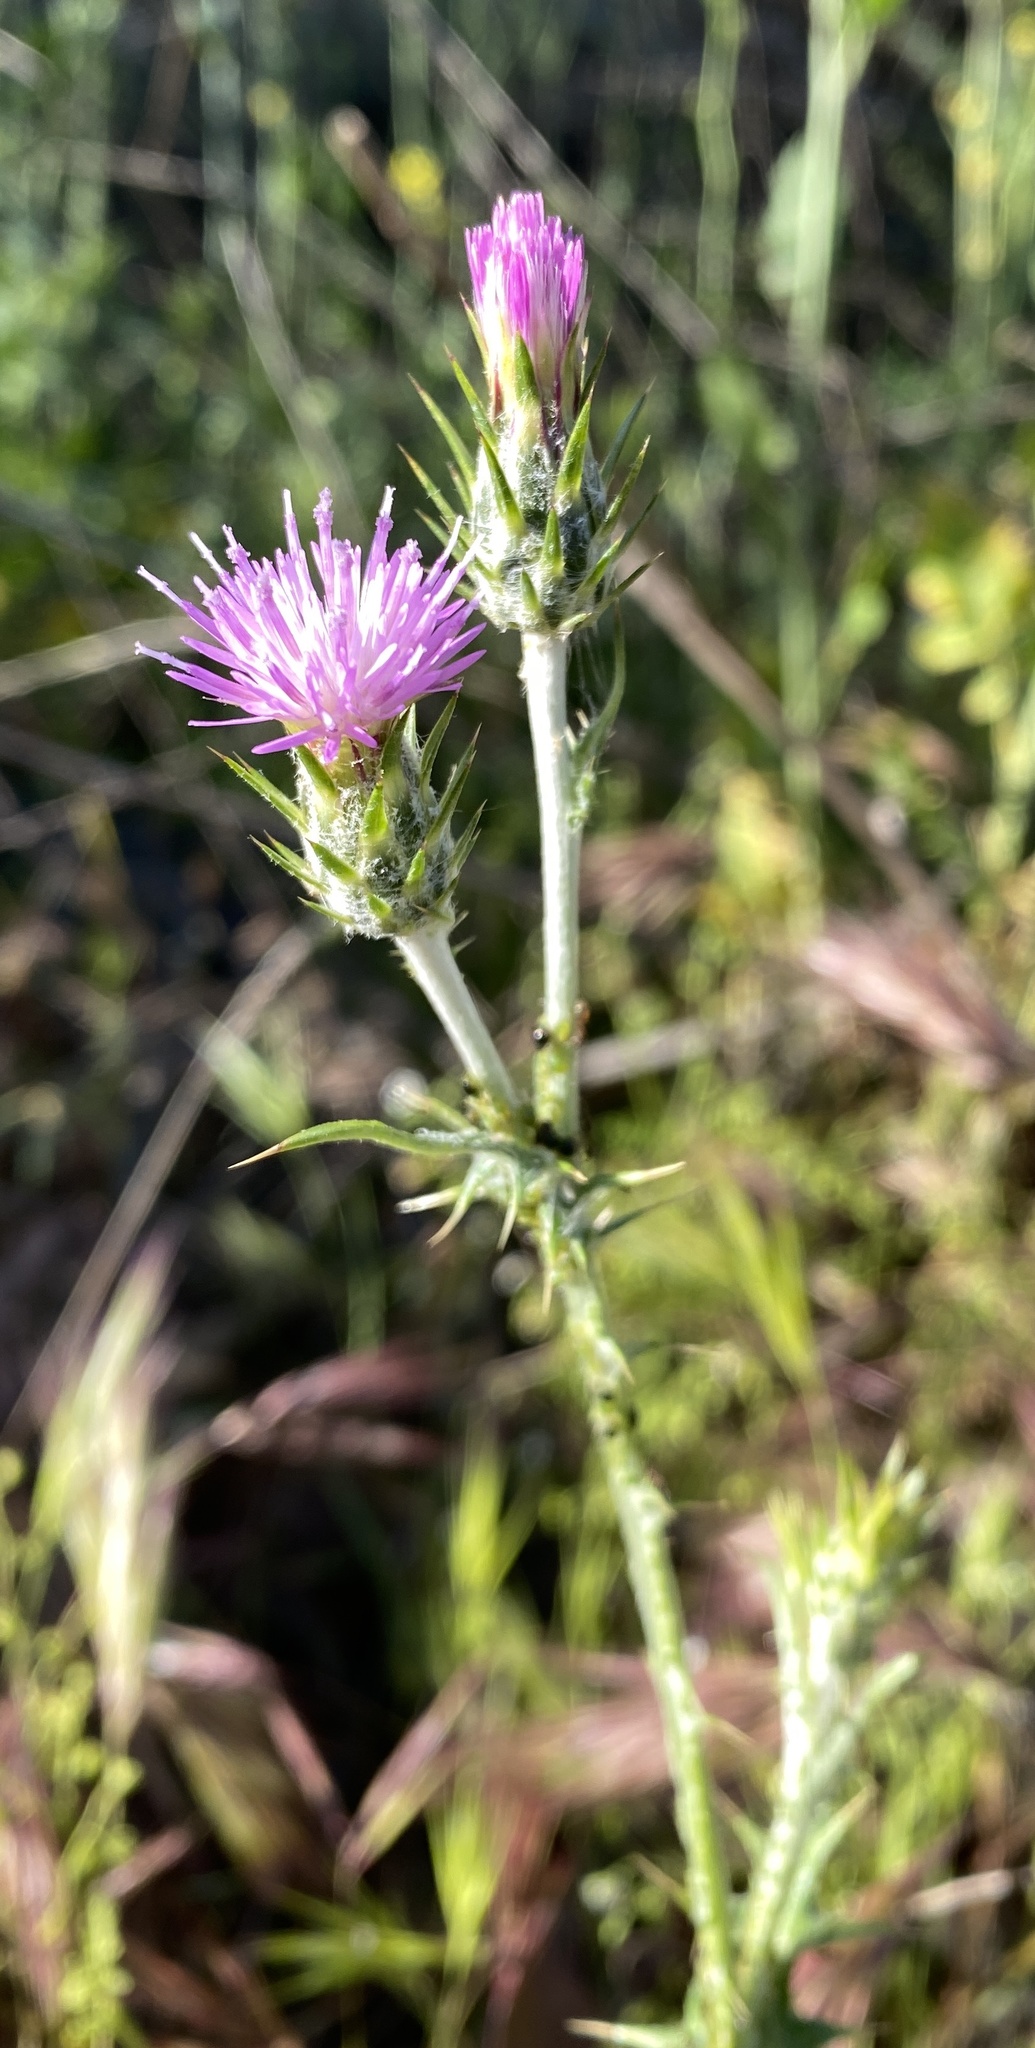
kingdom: Plantae
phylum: Tracheophyta
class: Magnoliopsida
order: Asterales
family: Asteraceae
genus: Carduus
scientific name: Carduus pycnocephalus
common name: Plymouth thistle
